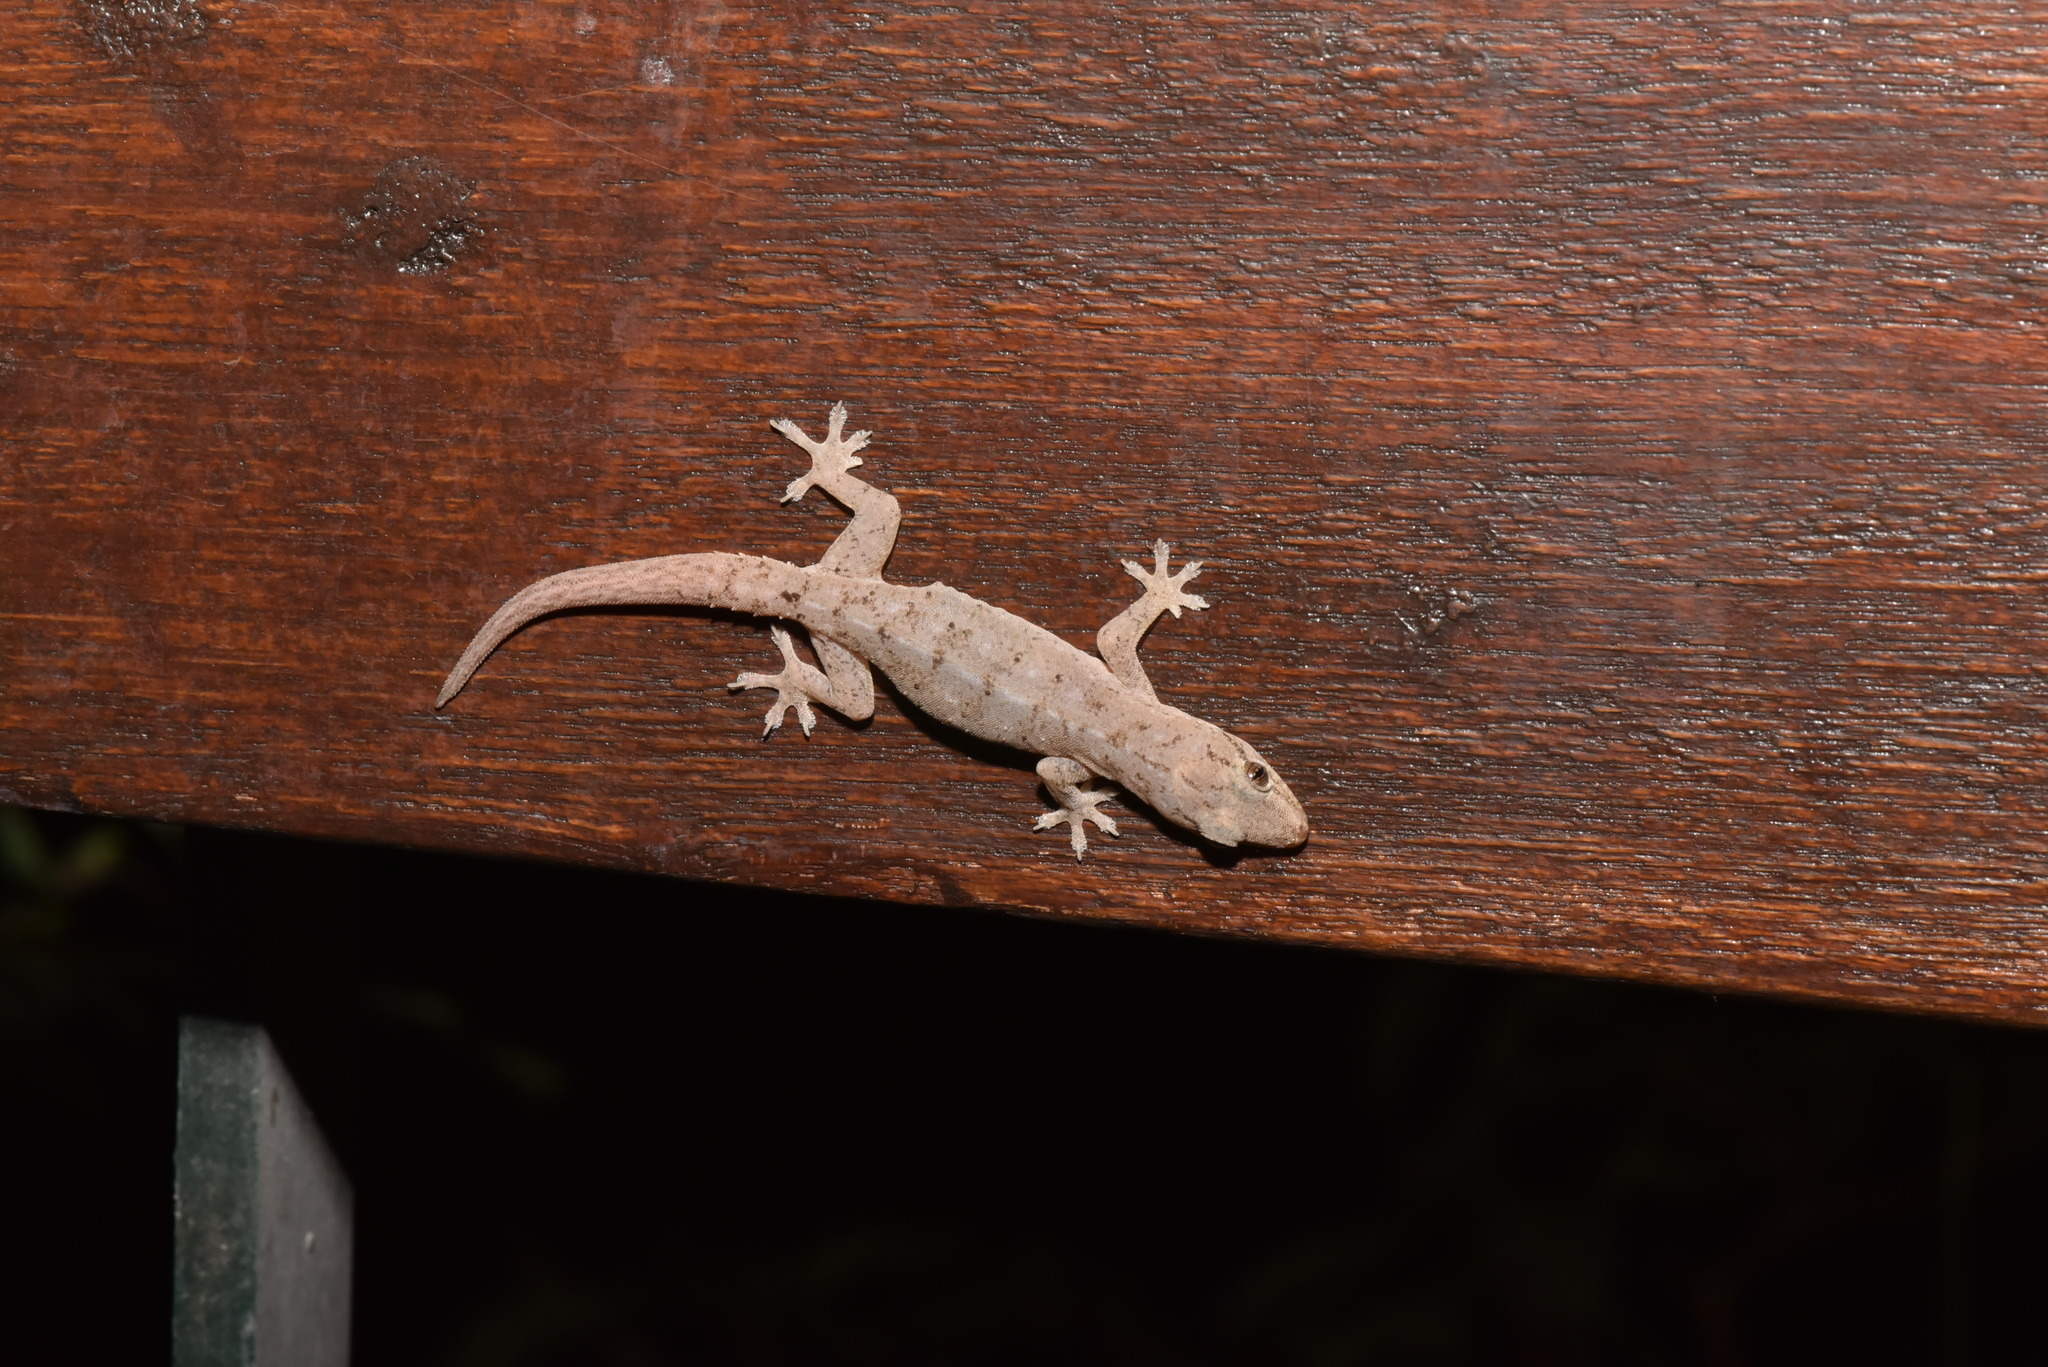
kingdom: Animalia
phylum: Chordata
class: Squamata
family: Gekkonidae
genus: Hemidactylus
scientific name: Hemidactylus frenatus
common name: Common house gecko
